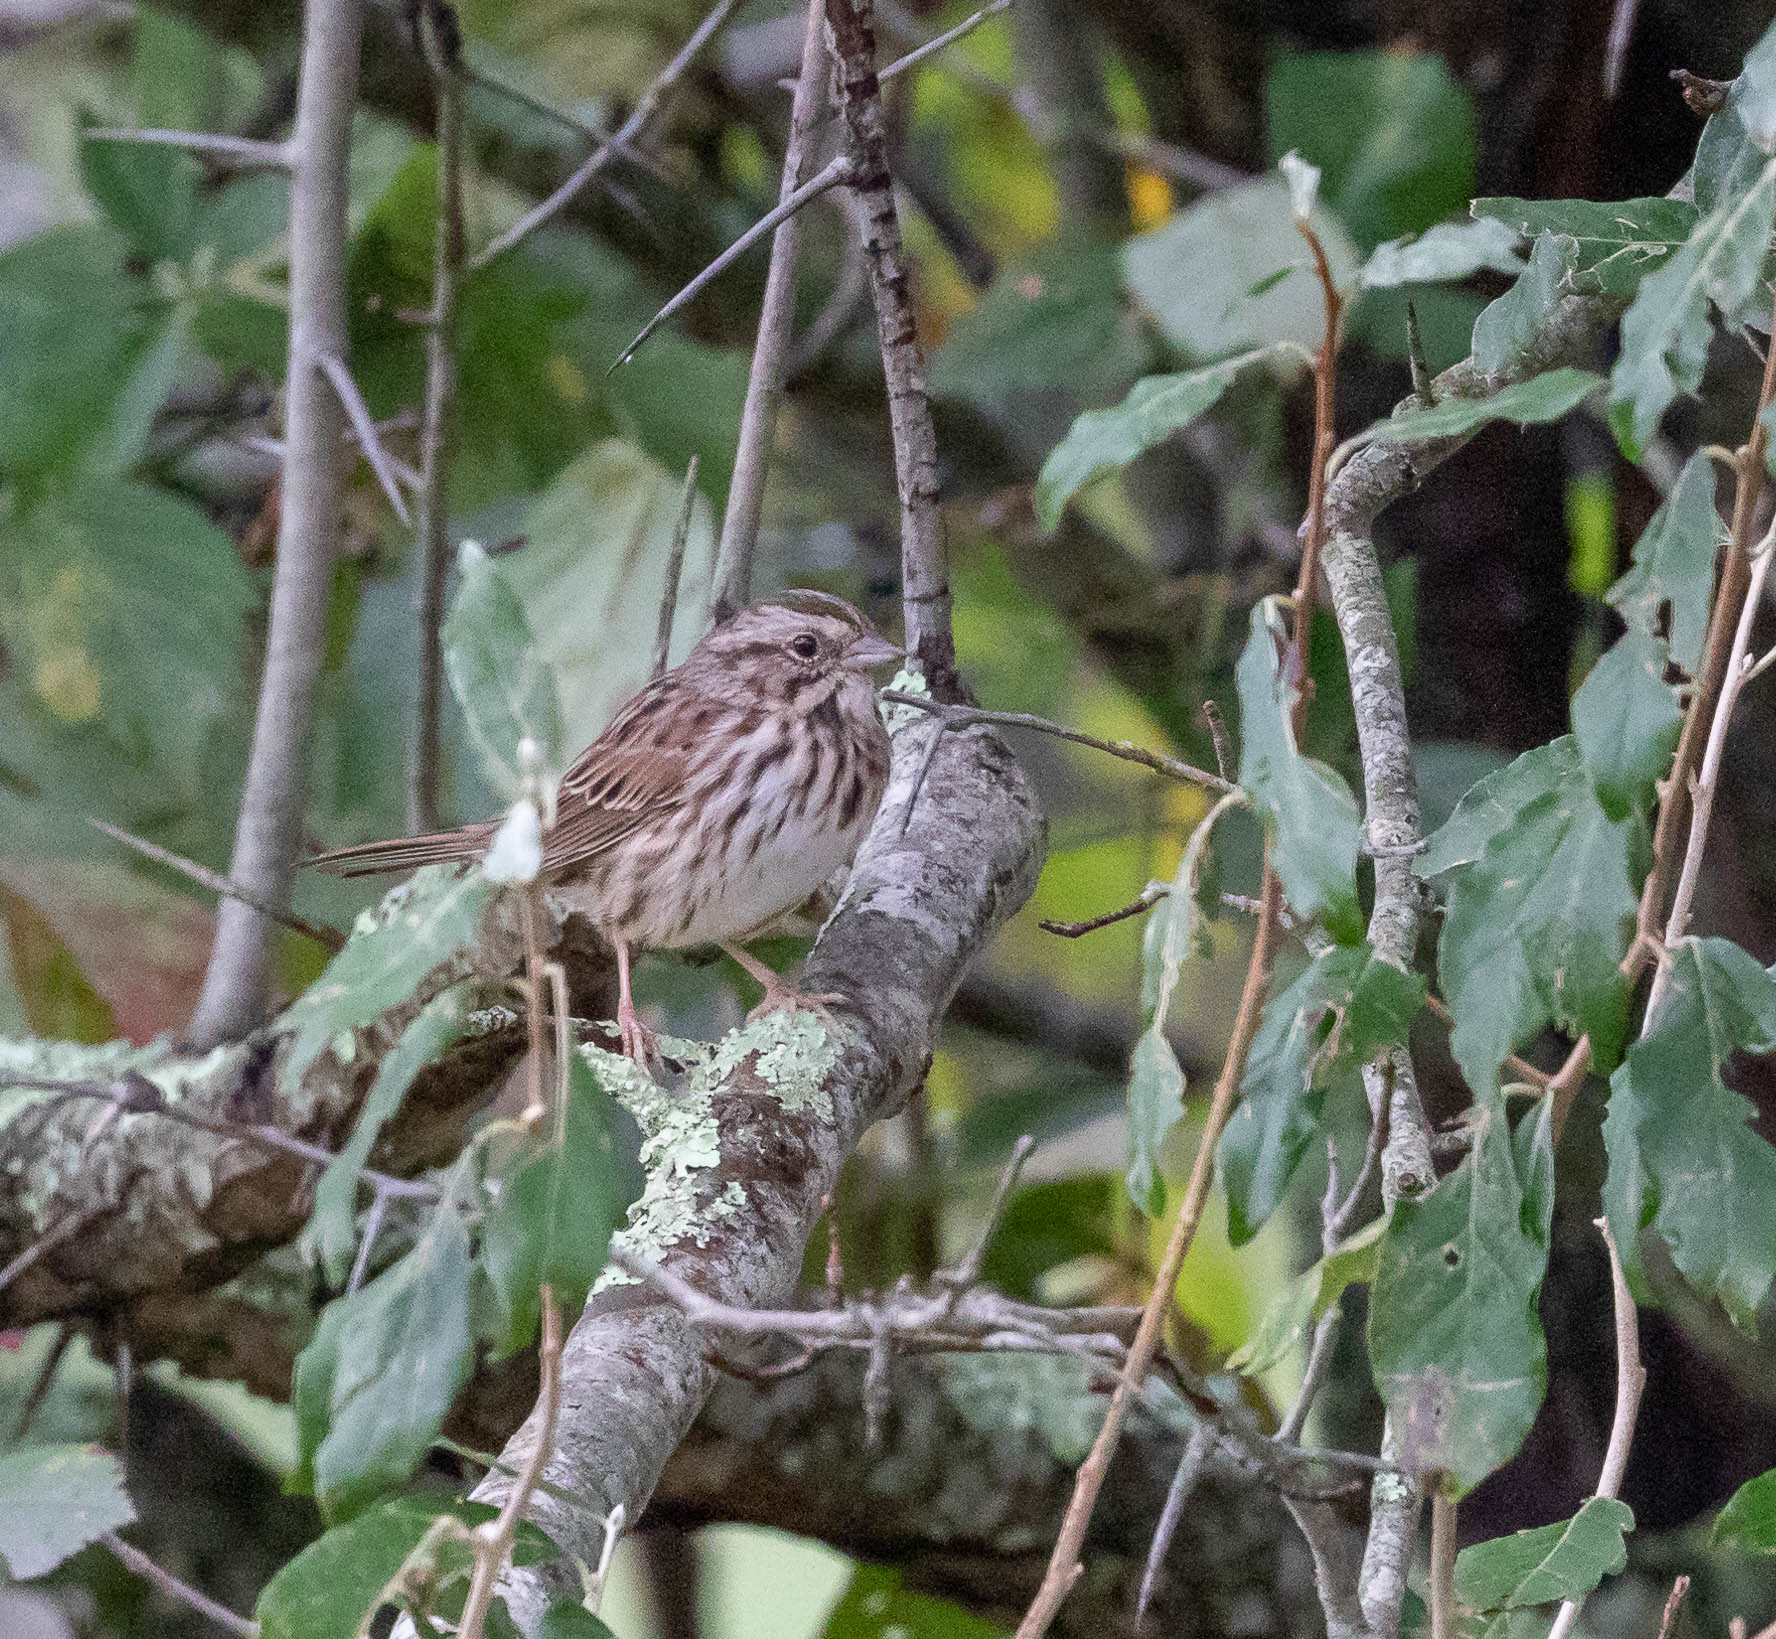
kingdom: Animalia
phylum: Chordata
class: Aves
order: Passeriformes
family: Passerellidae
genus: Melospiza
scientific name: Melospiza melodia
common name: Song sparrow
